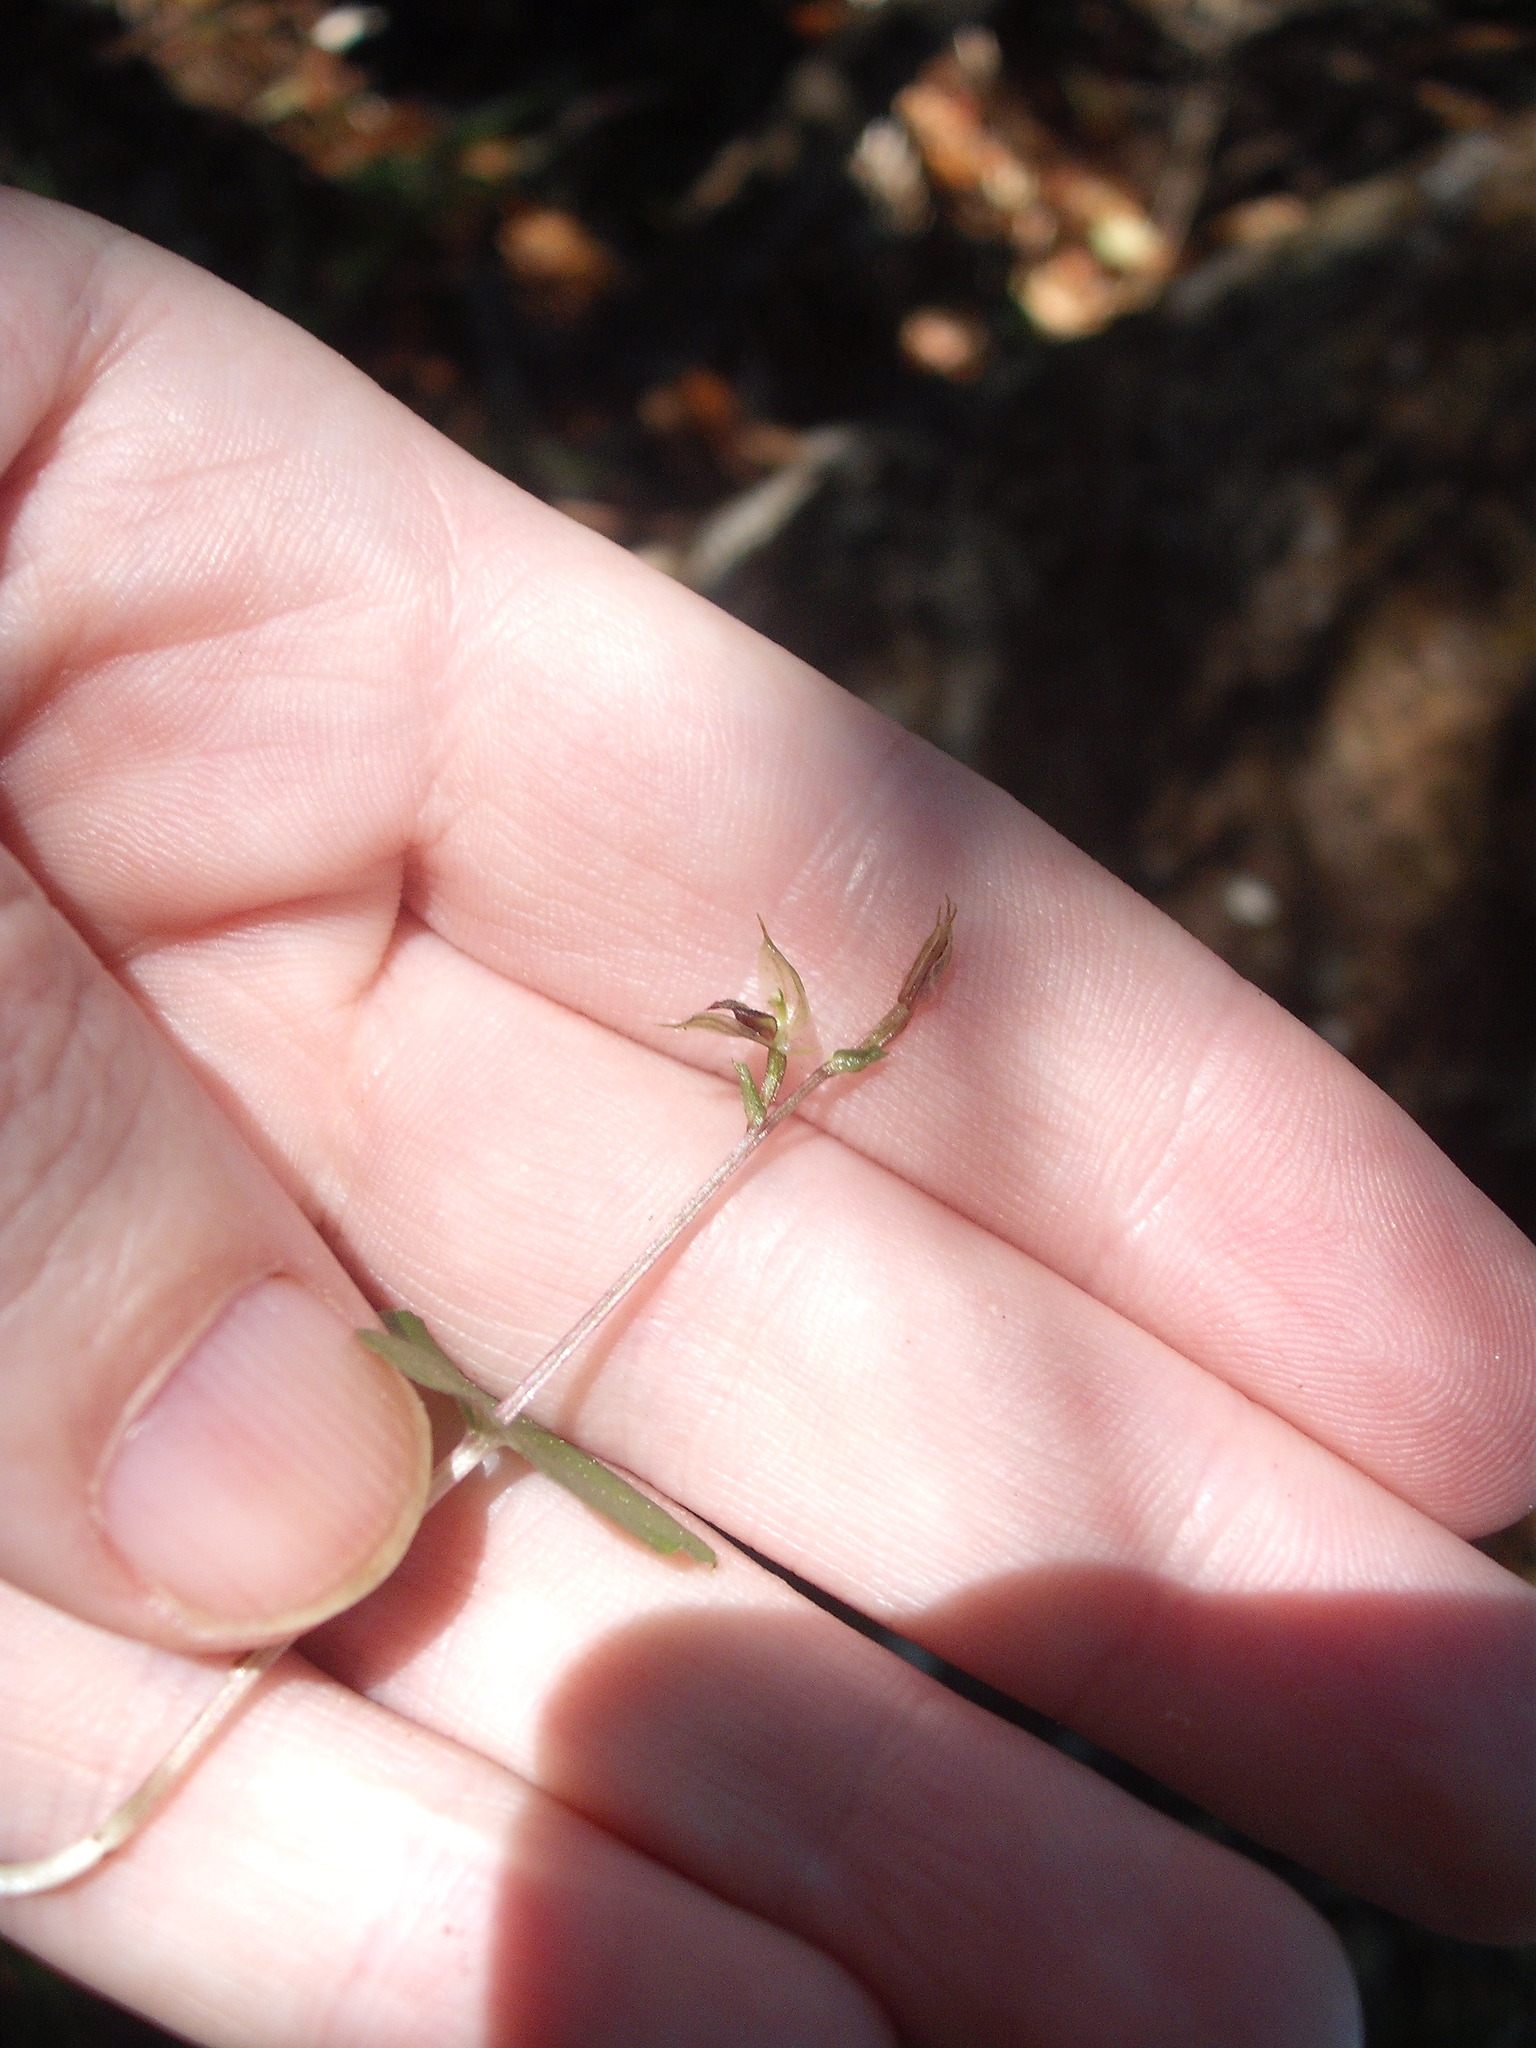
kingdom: Plantae
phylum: Tracheophyta
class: Liliopsida
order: Asparagales
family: Orchidaceae
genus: Acianthus
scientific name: Acianthus sinclairii
